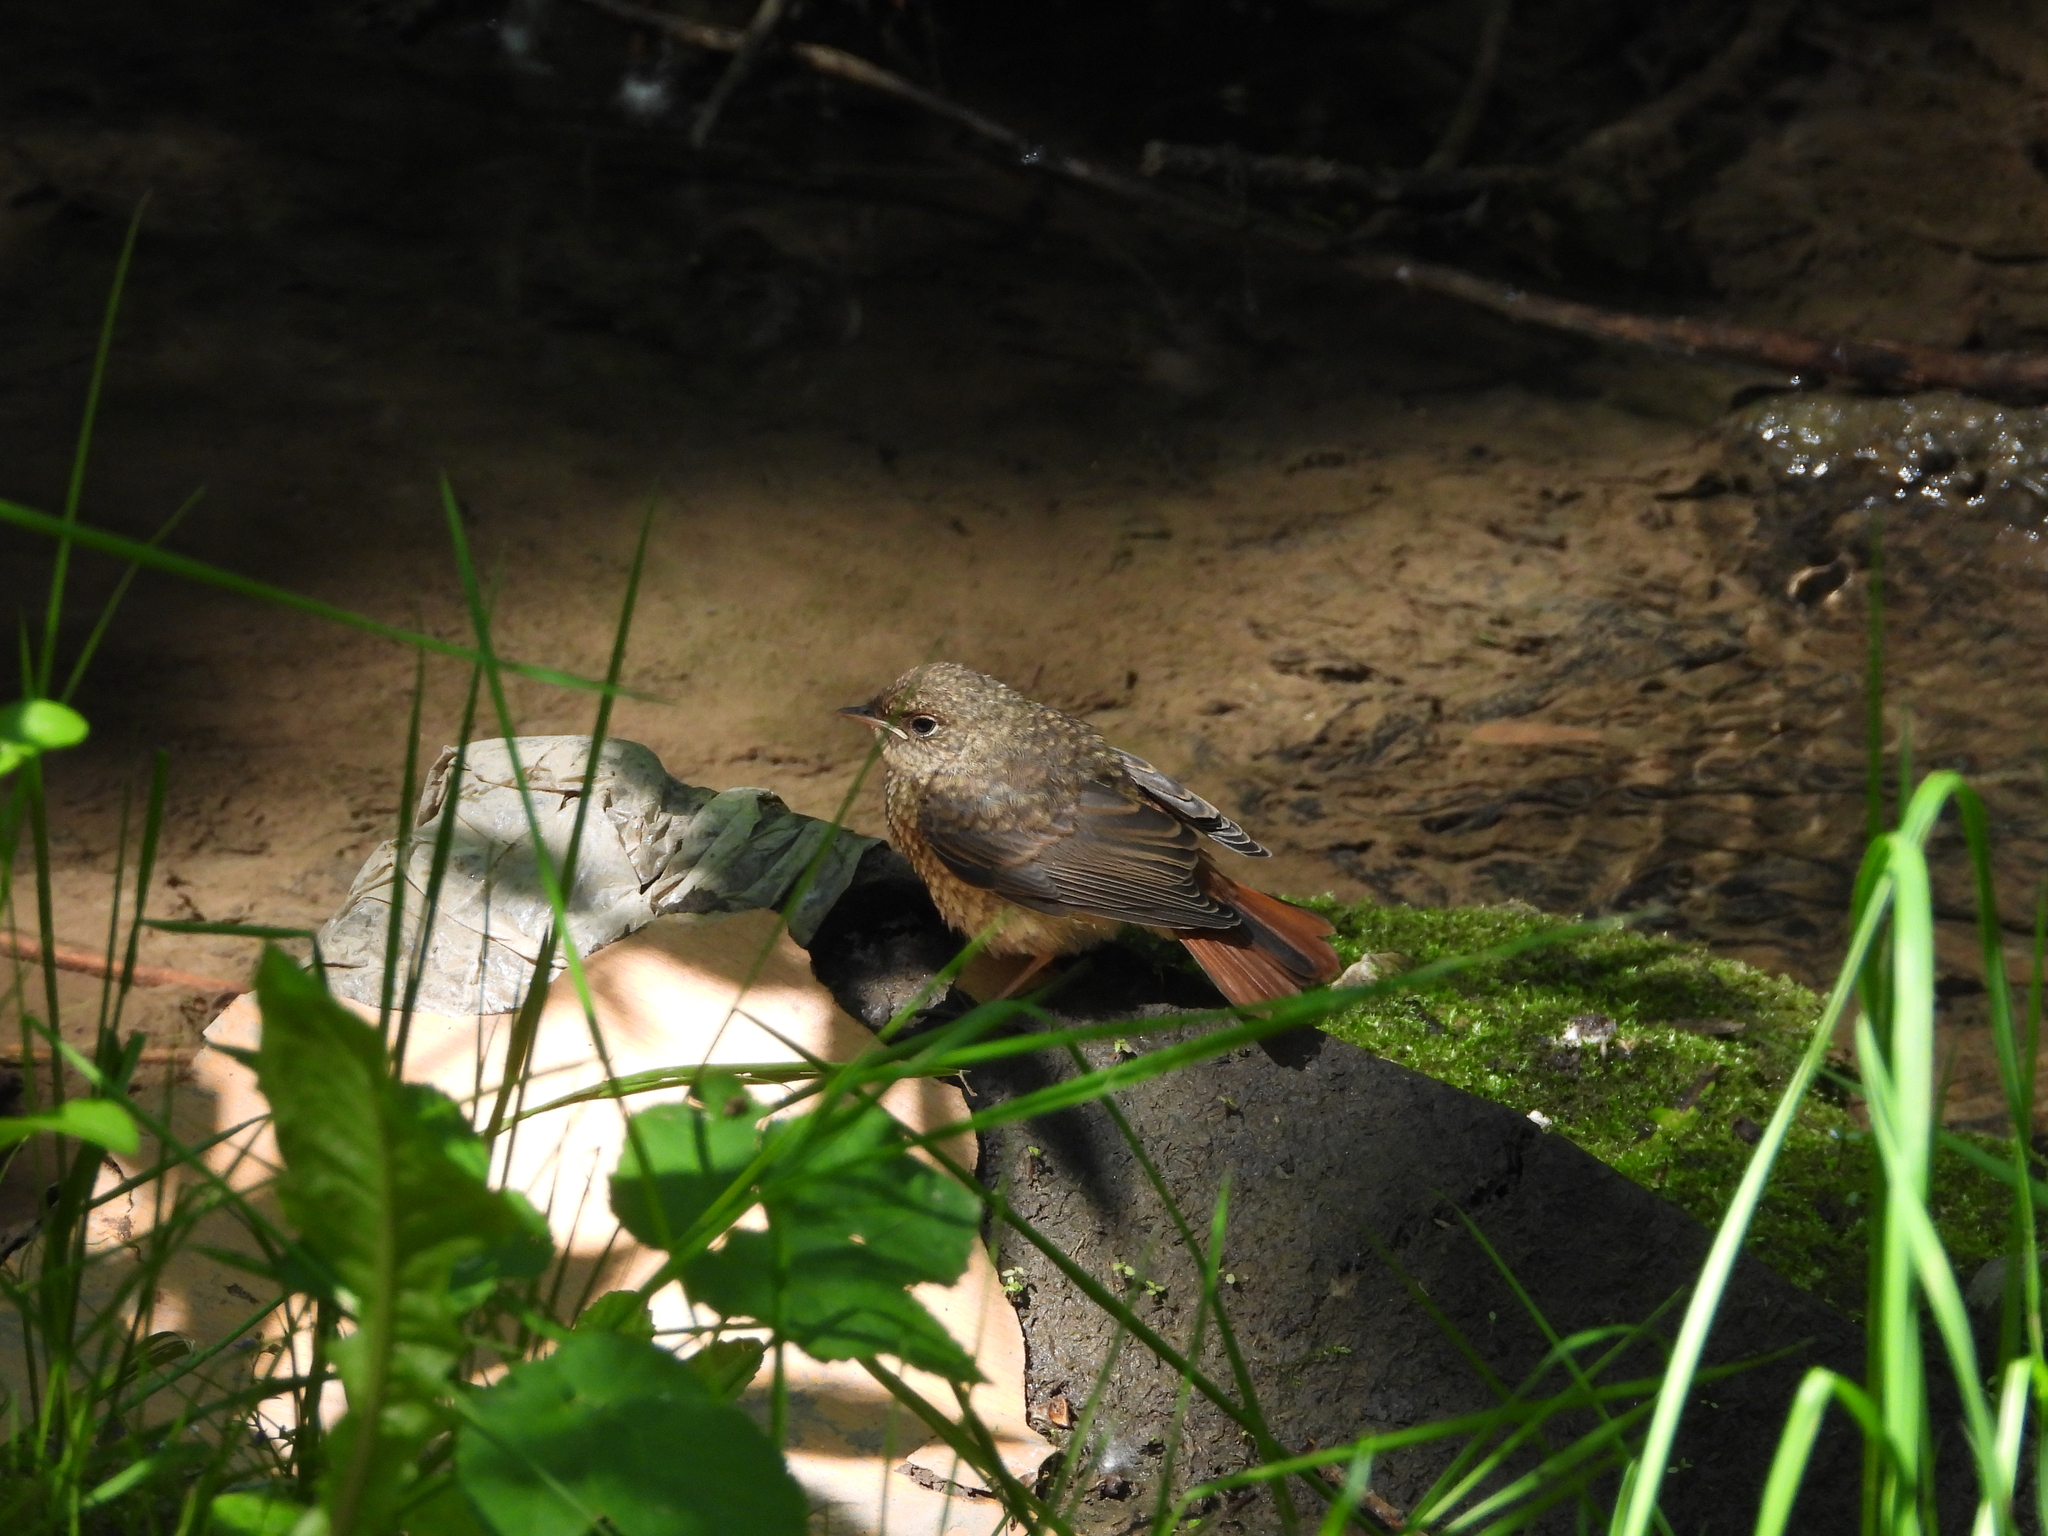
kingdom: Animalia
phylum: Chordata
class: Aves
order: Passeriformes
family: Muscicapidae
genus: Phoenicurus
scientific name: Phoenicurus phoenicurus
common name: Common redstart
